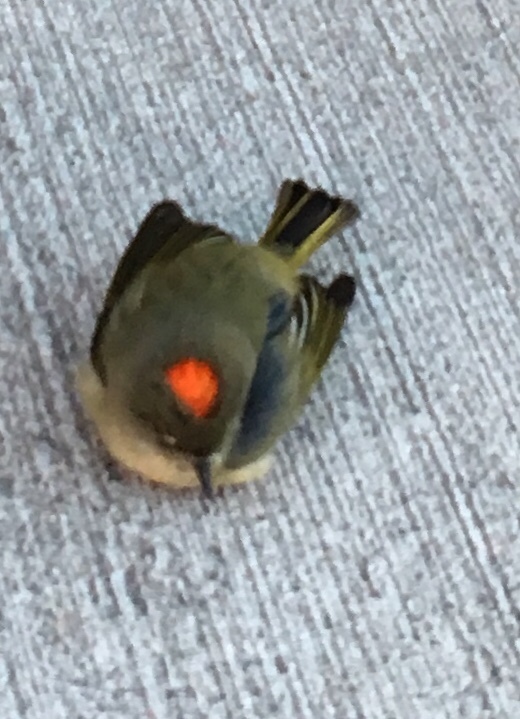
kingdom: Animalia
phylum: Chordata
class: Aves
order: Passeriformes
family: Regulidae
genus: Regulus
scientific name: Regulus calendula
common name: Ruby-crowned kinglet
